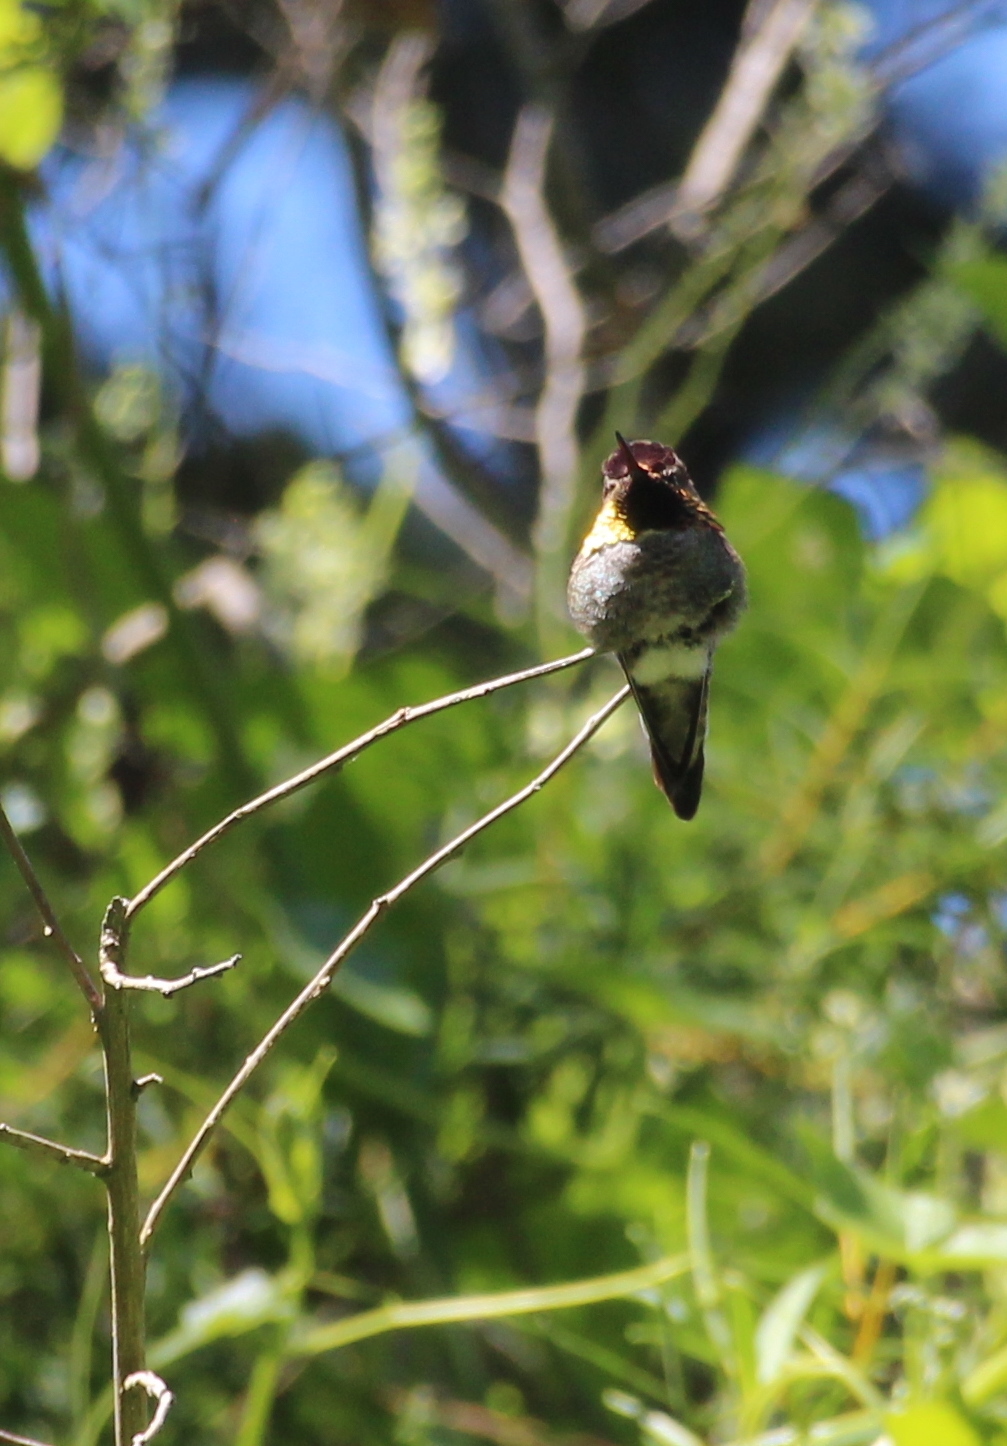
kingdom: Animalia
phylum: Chordata
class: Aves
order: Apodiformes
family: Trochilidae
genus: Calypte
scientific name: Calypte anna
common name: Anna's hummingbird
